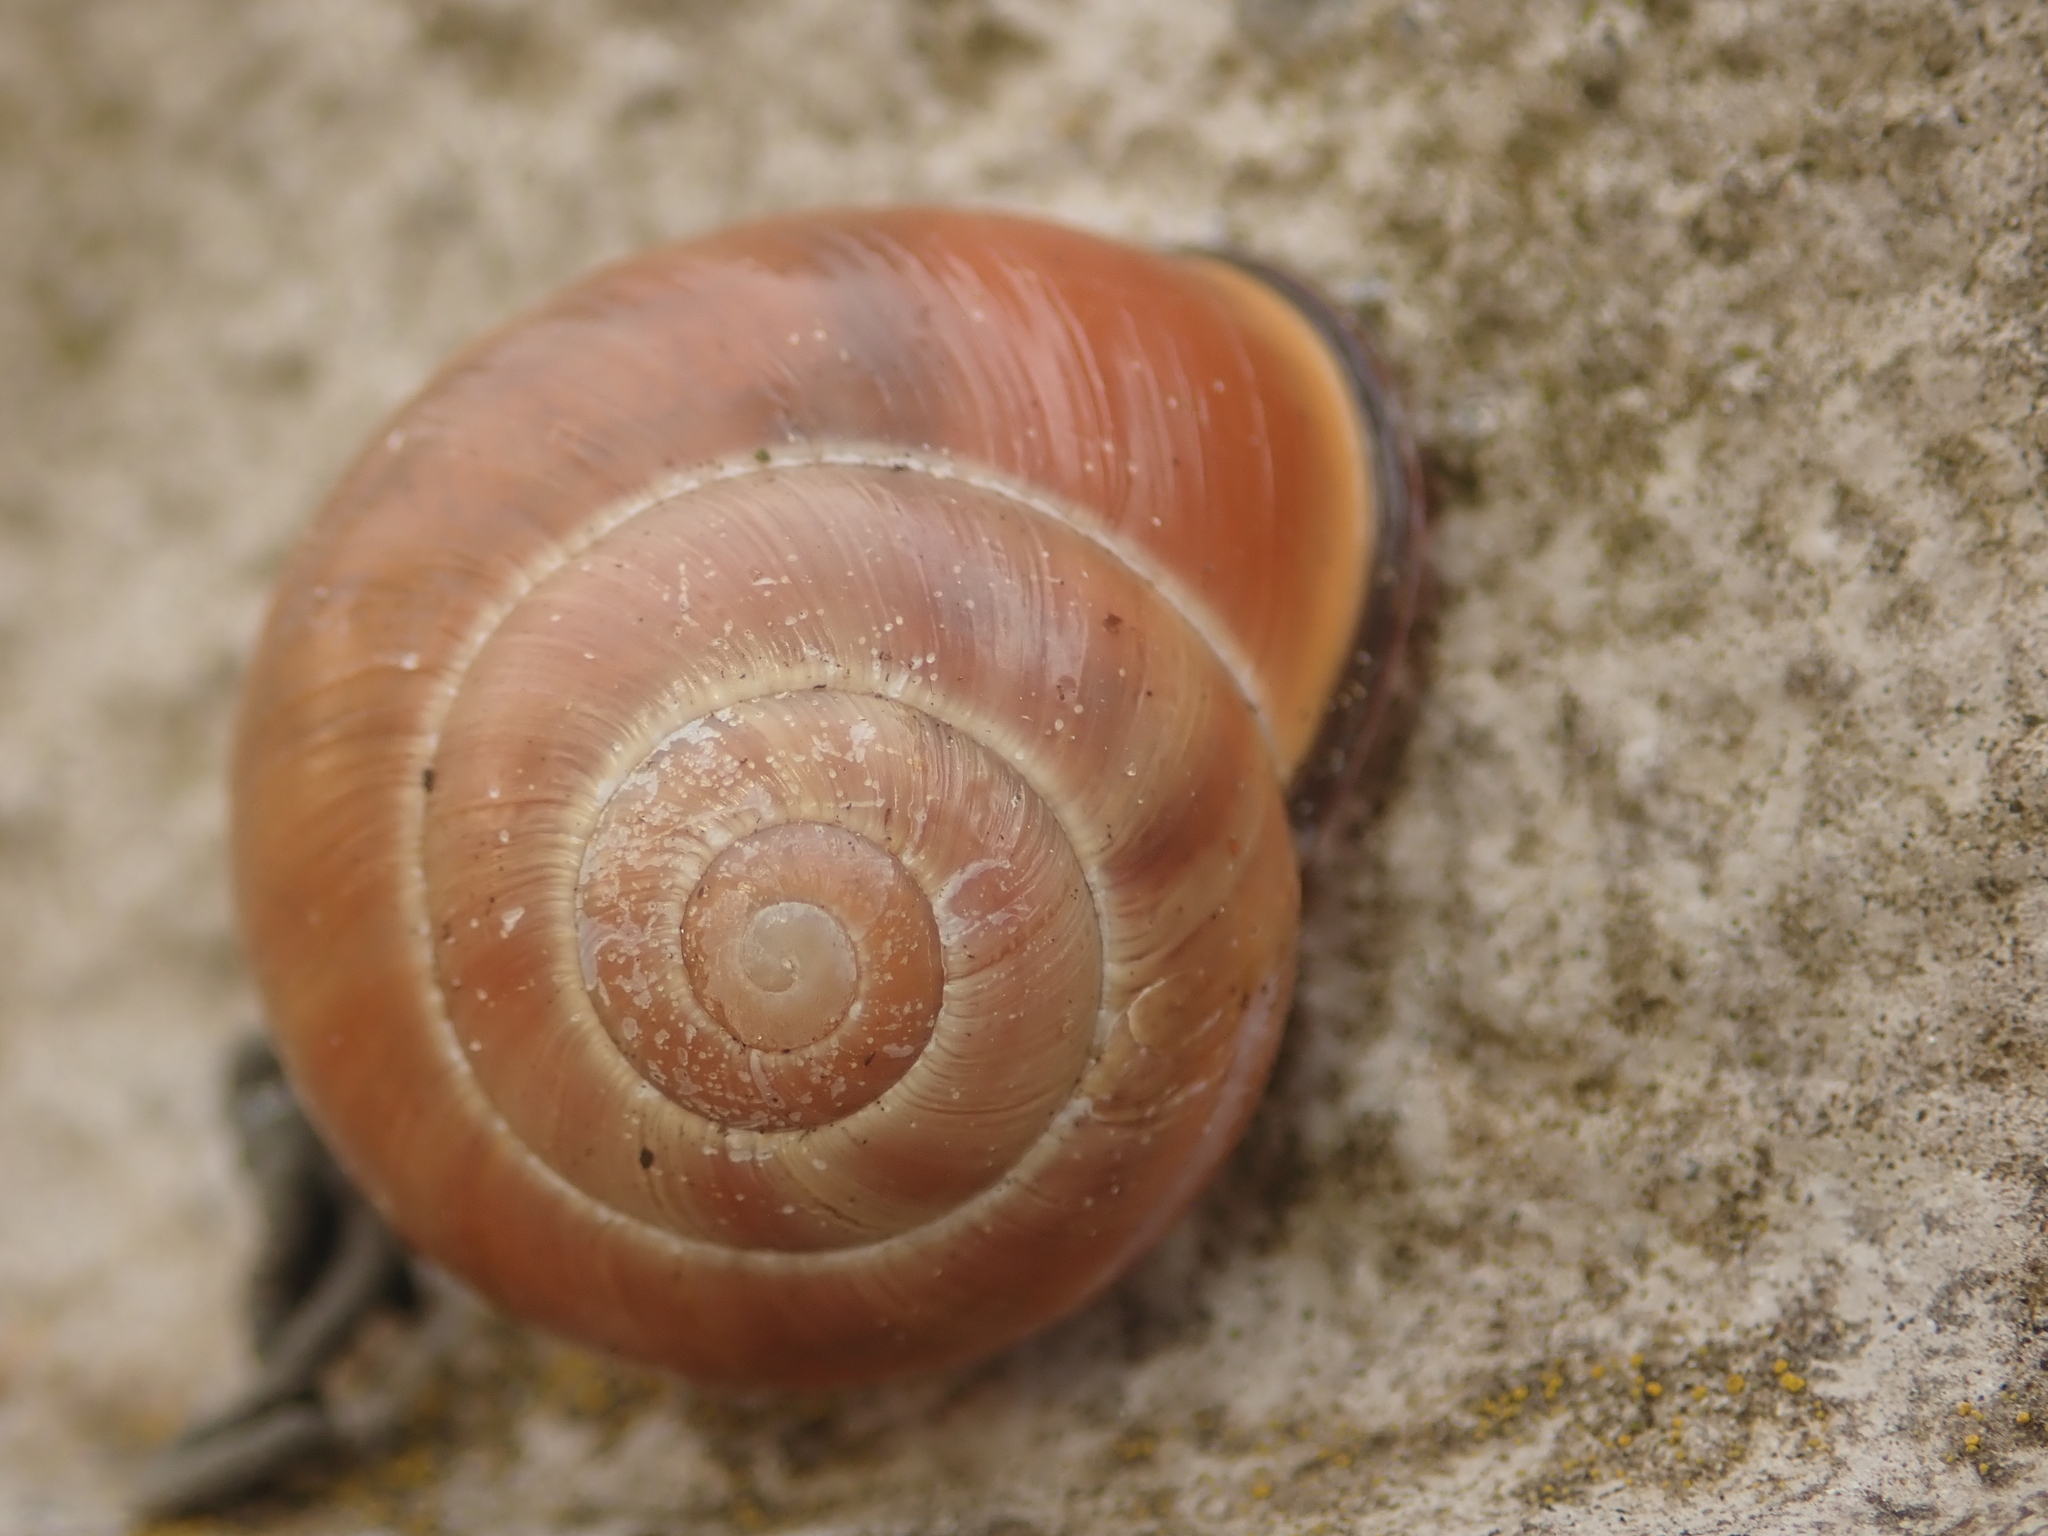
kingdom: Animalia
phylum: Mollusca
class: Gastropoda
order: Stylommatophora
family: Helicidae
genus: Cepaea
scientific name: Cepaea nemoralis
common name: Grovesnail
